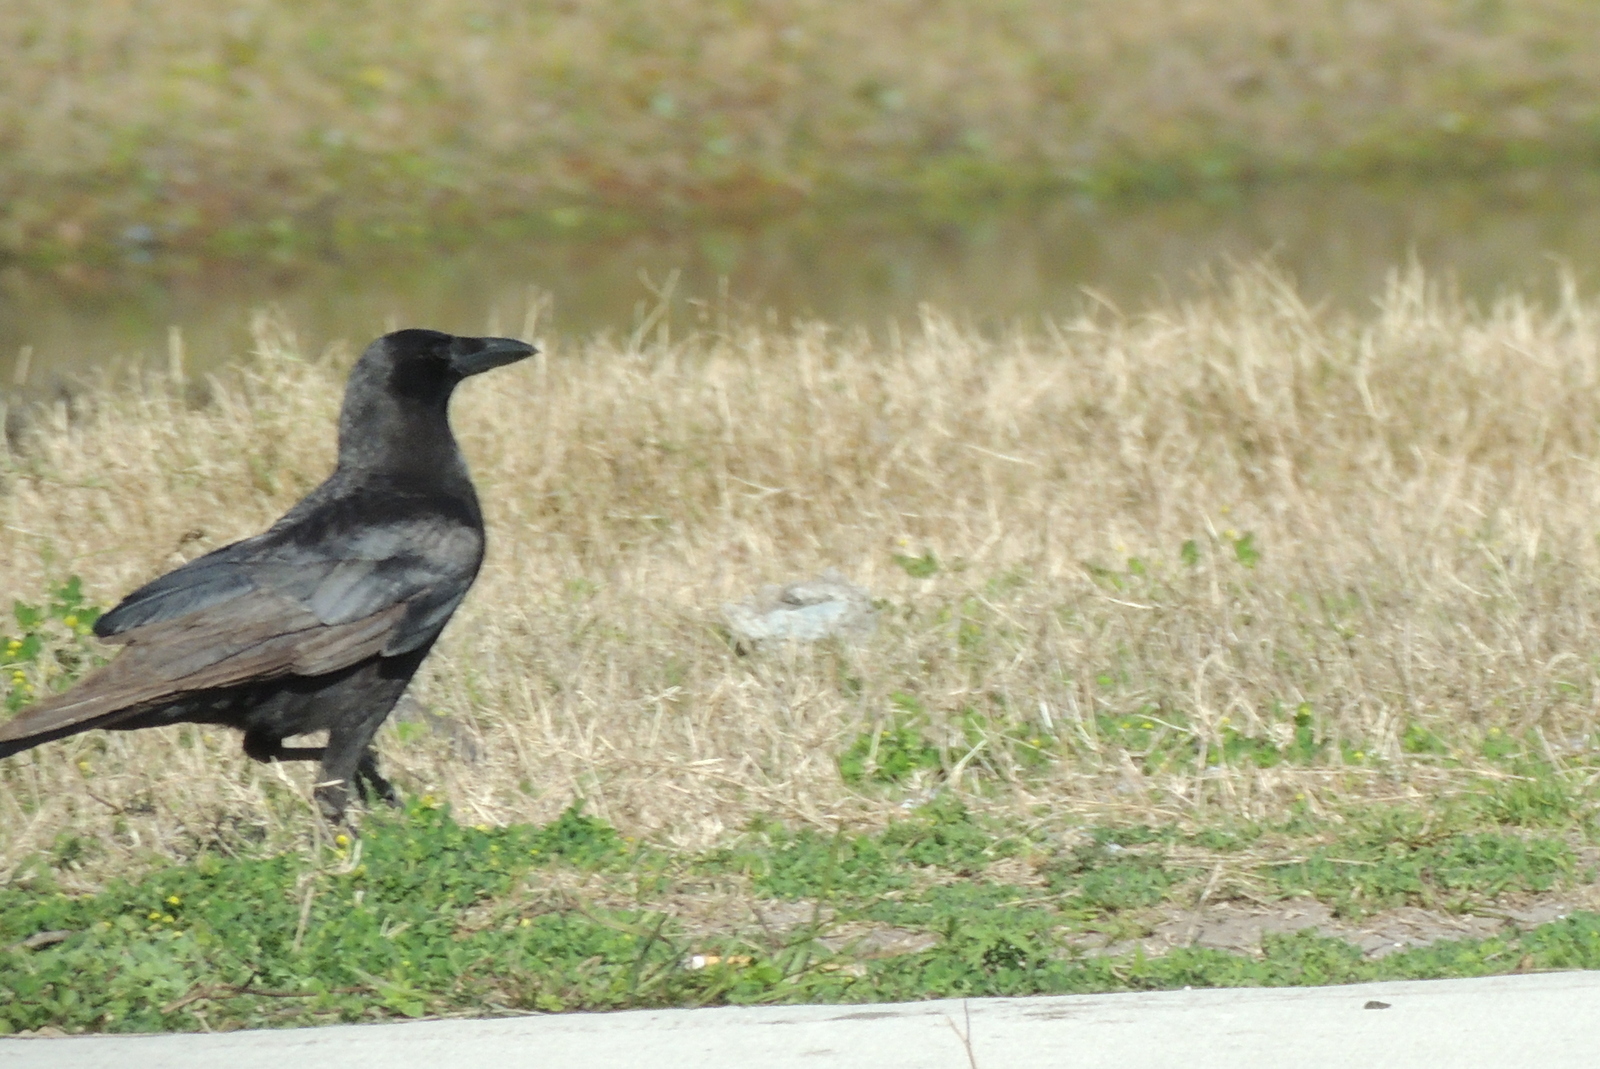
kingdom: Animalia
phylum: Chordata
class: Aves
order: Passeriformes
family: Corvidae
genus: Corvus
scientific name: Corvus
